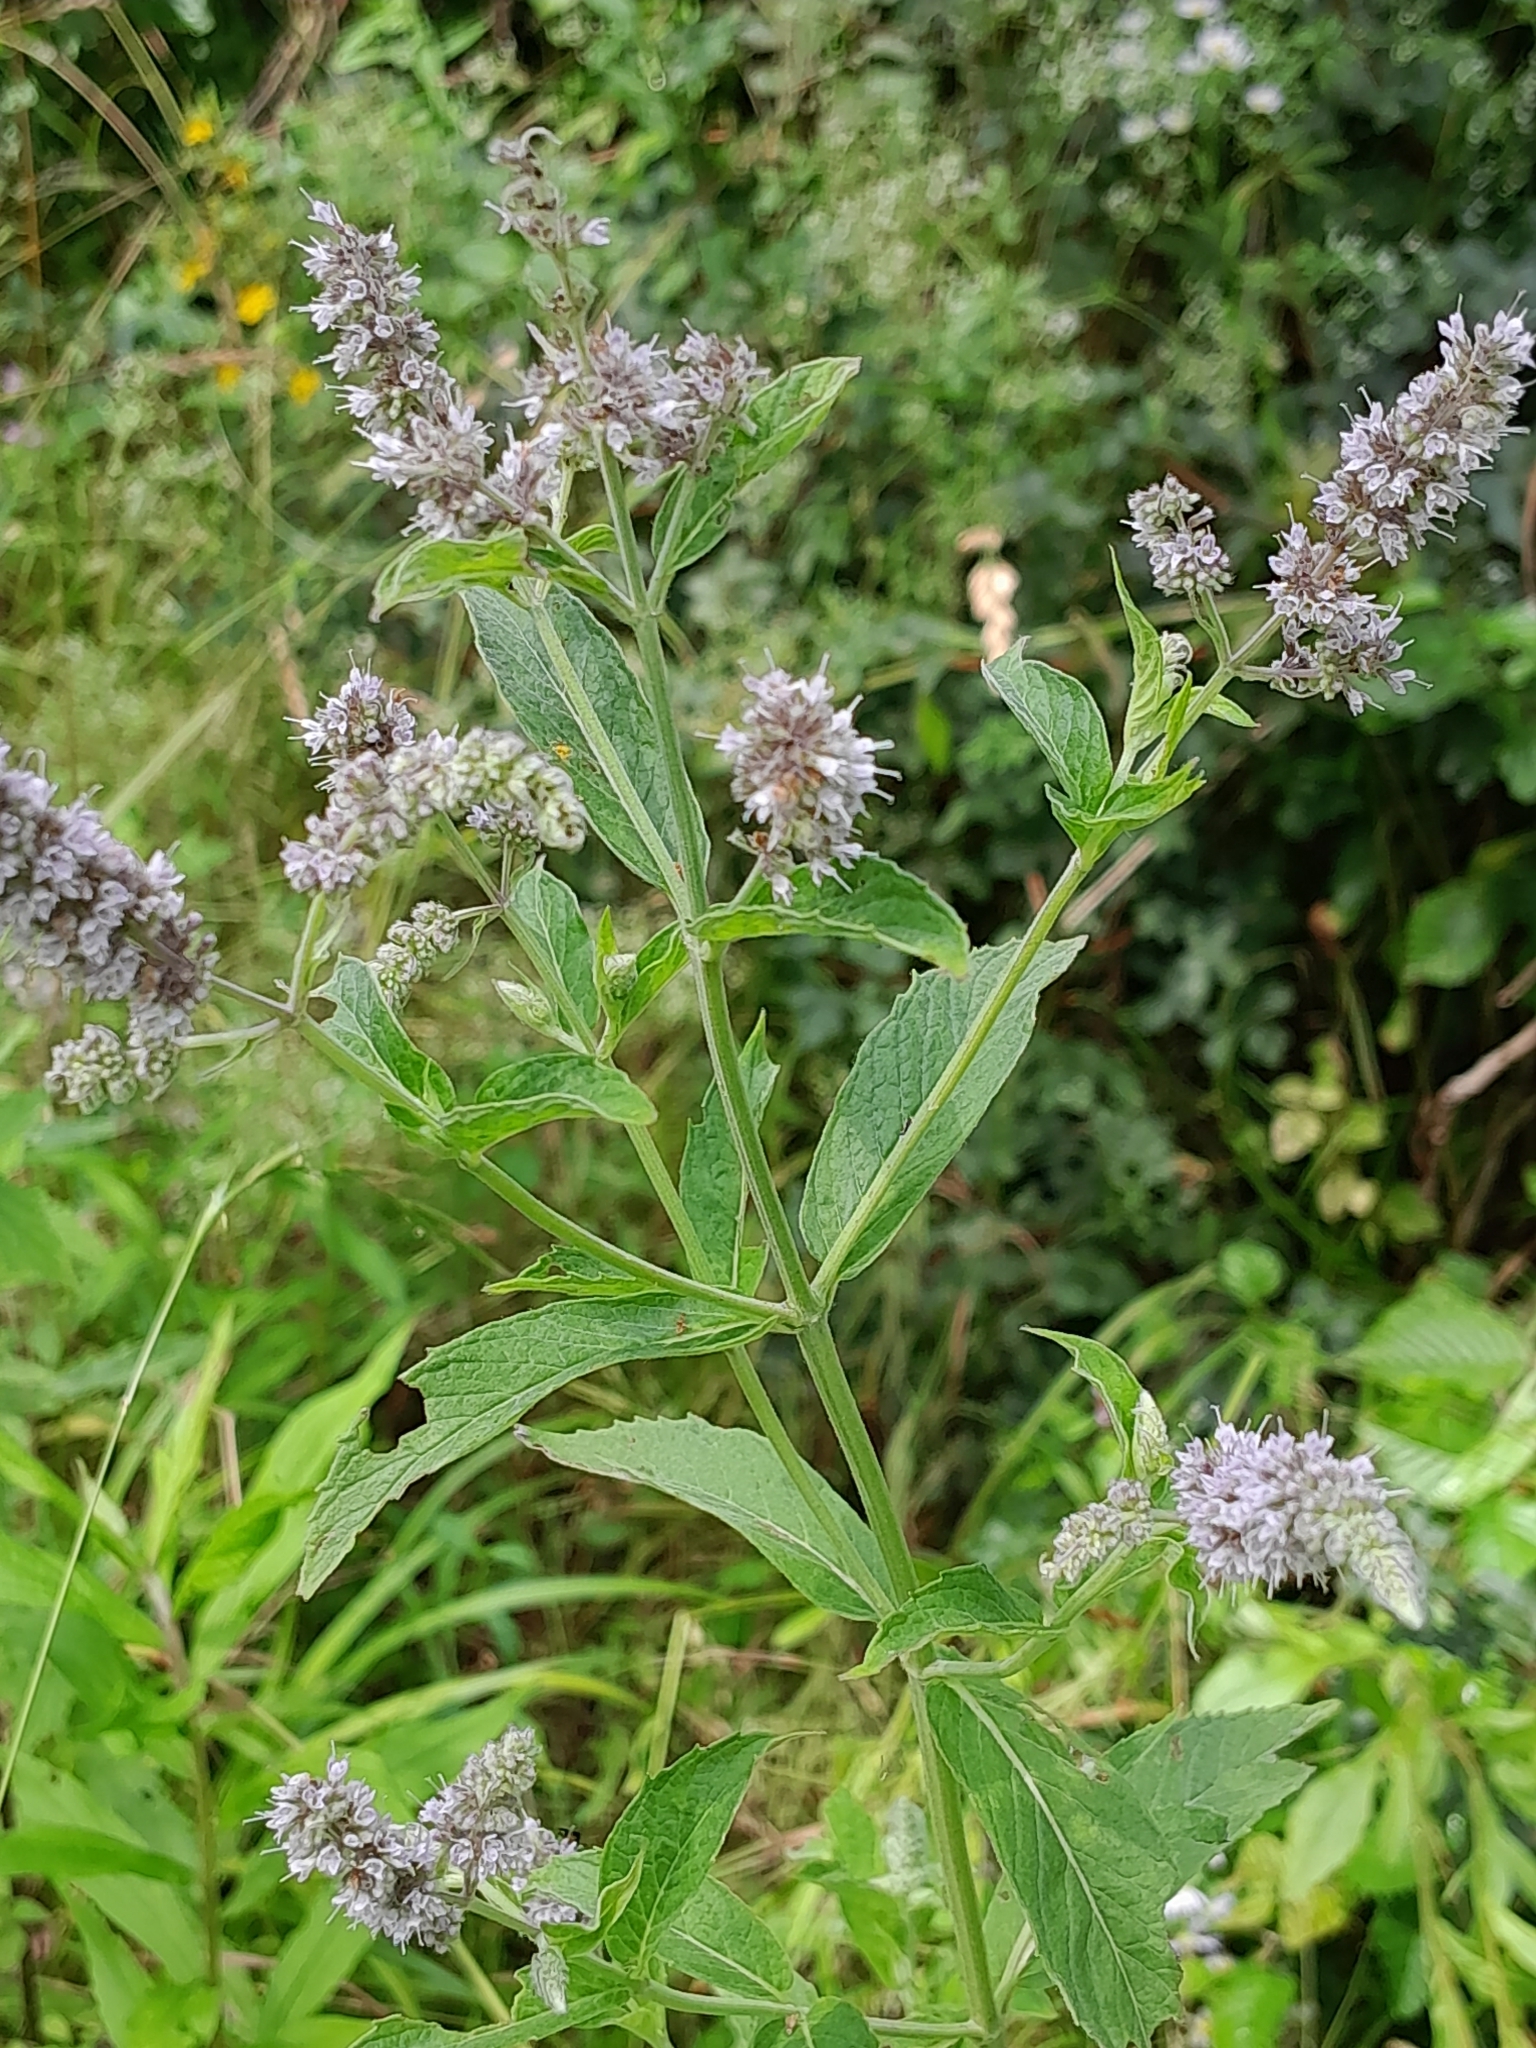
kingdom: Plantae
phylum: Tracheophyta
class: Magnoliopsida
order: Lamiales
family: Lamiaceae
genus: Mentha
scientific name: Mentha longifolia
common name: Horse mint
